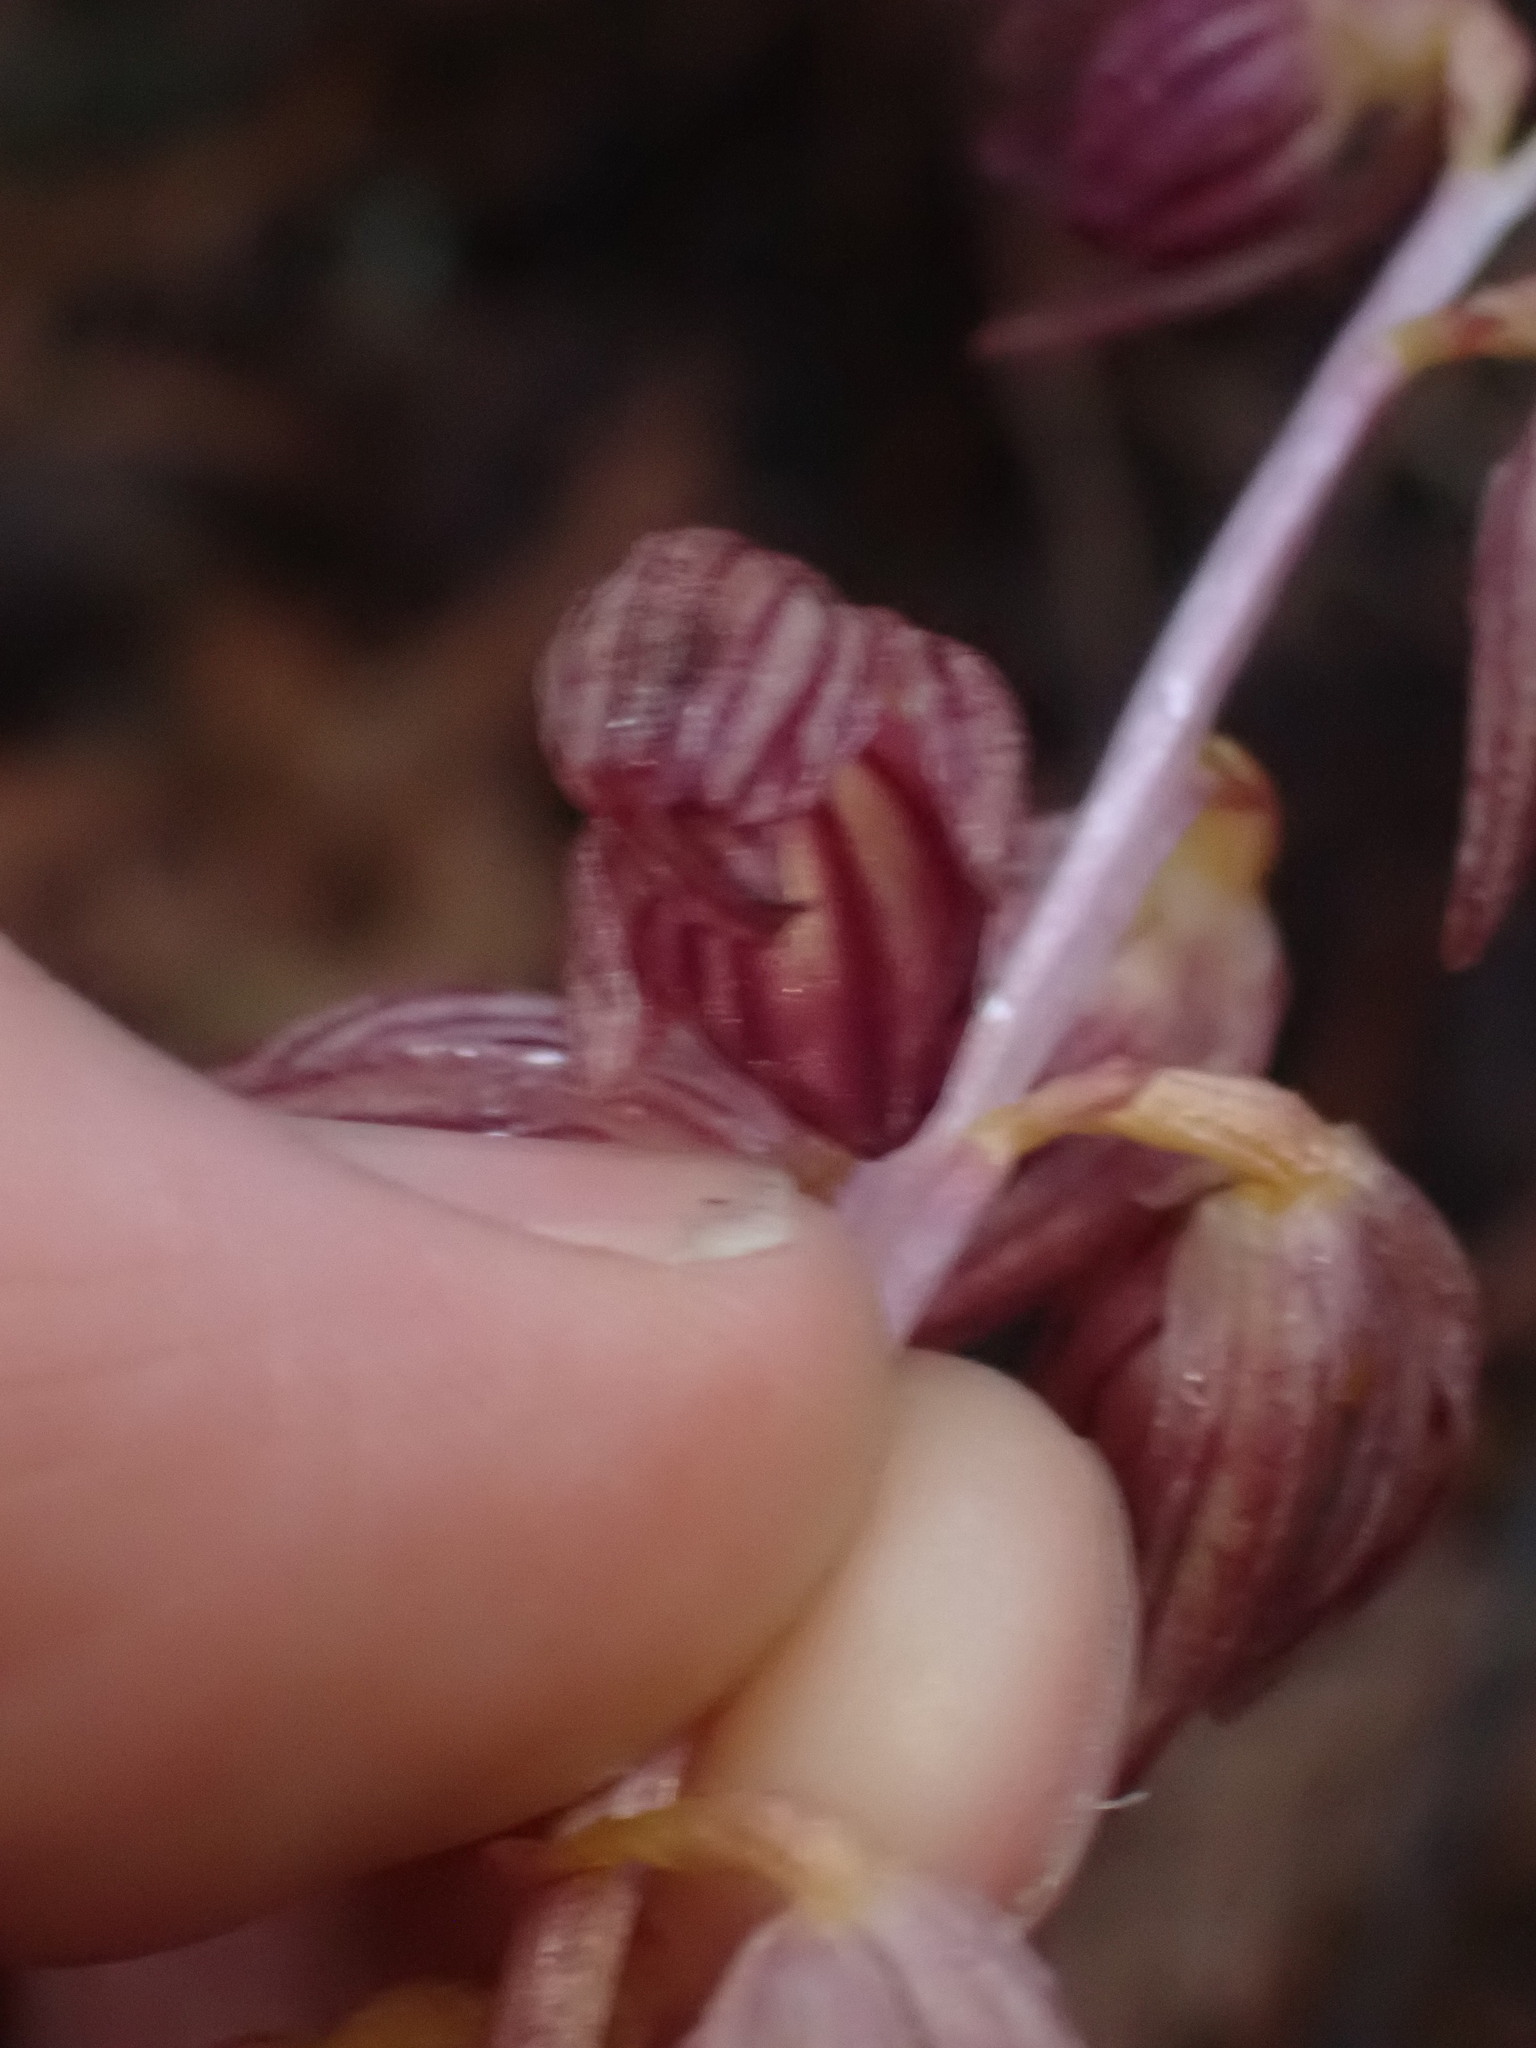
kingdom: Plantae
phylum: Tracheophyta
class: Liliopsida
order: Asparagales
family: Orchidaceae
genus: Corallorhiza
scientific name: Corallorhiza striata
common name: Hooded coralroot
